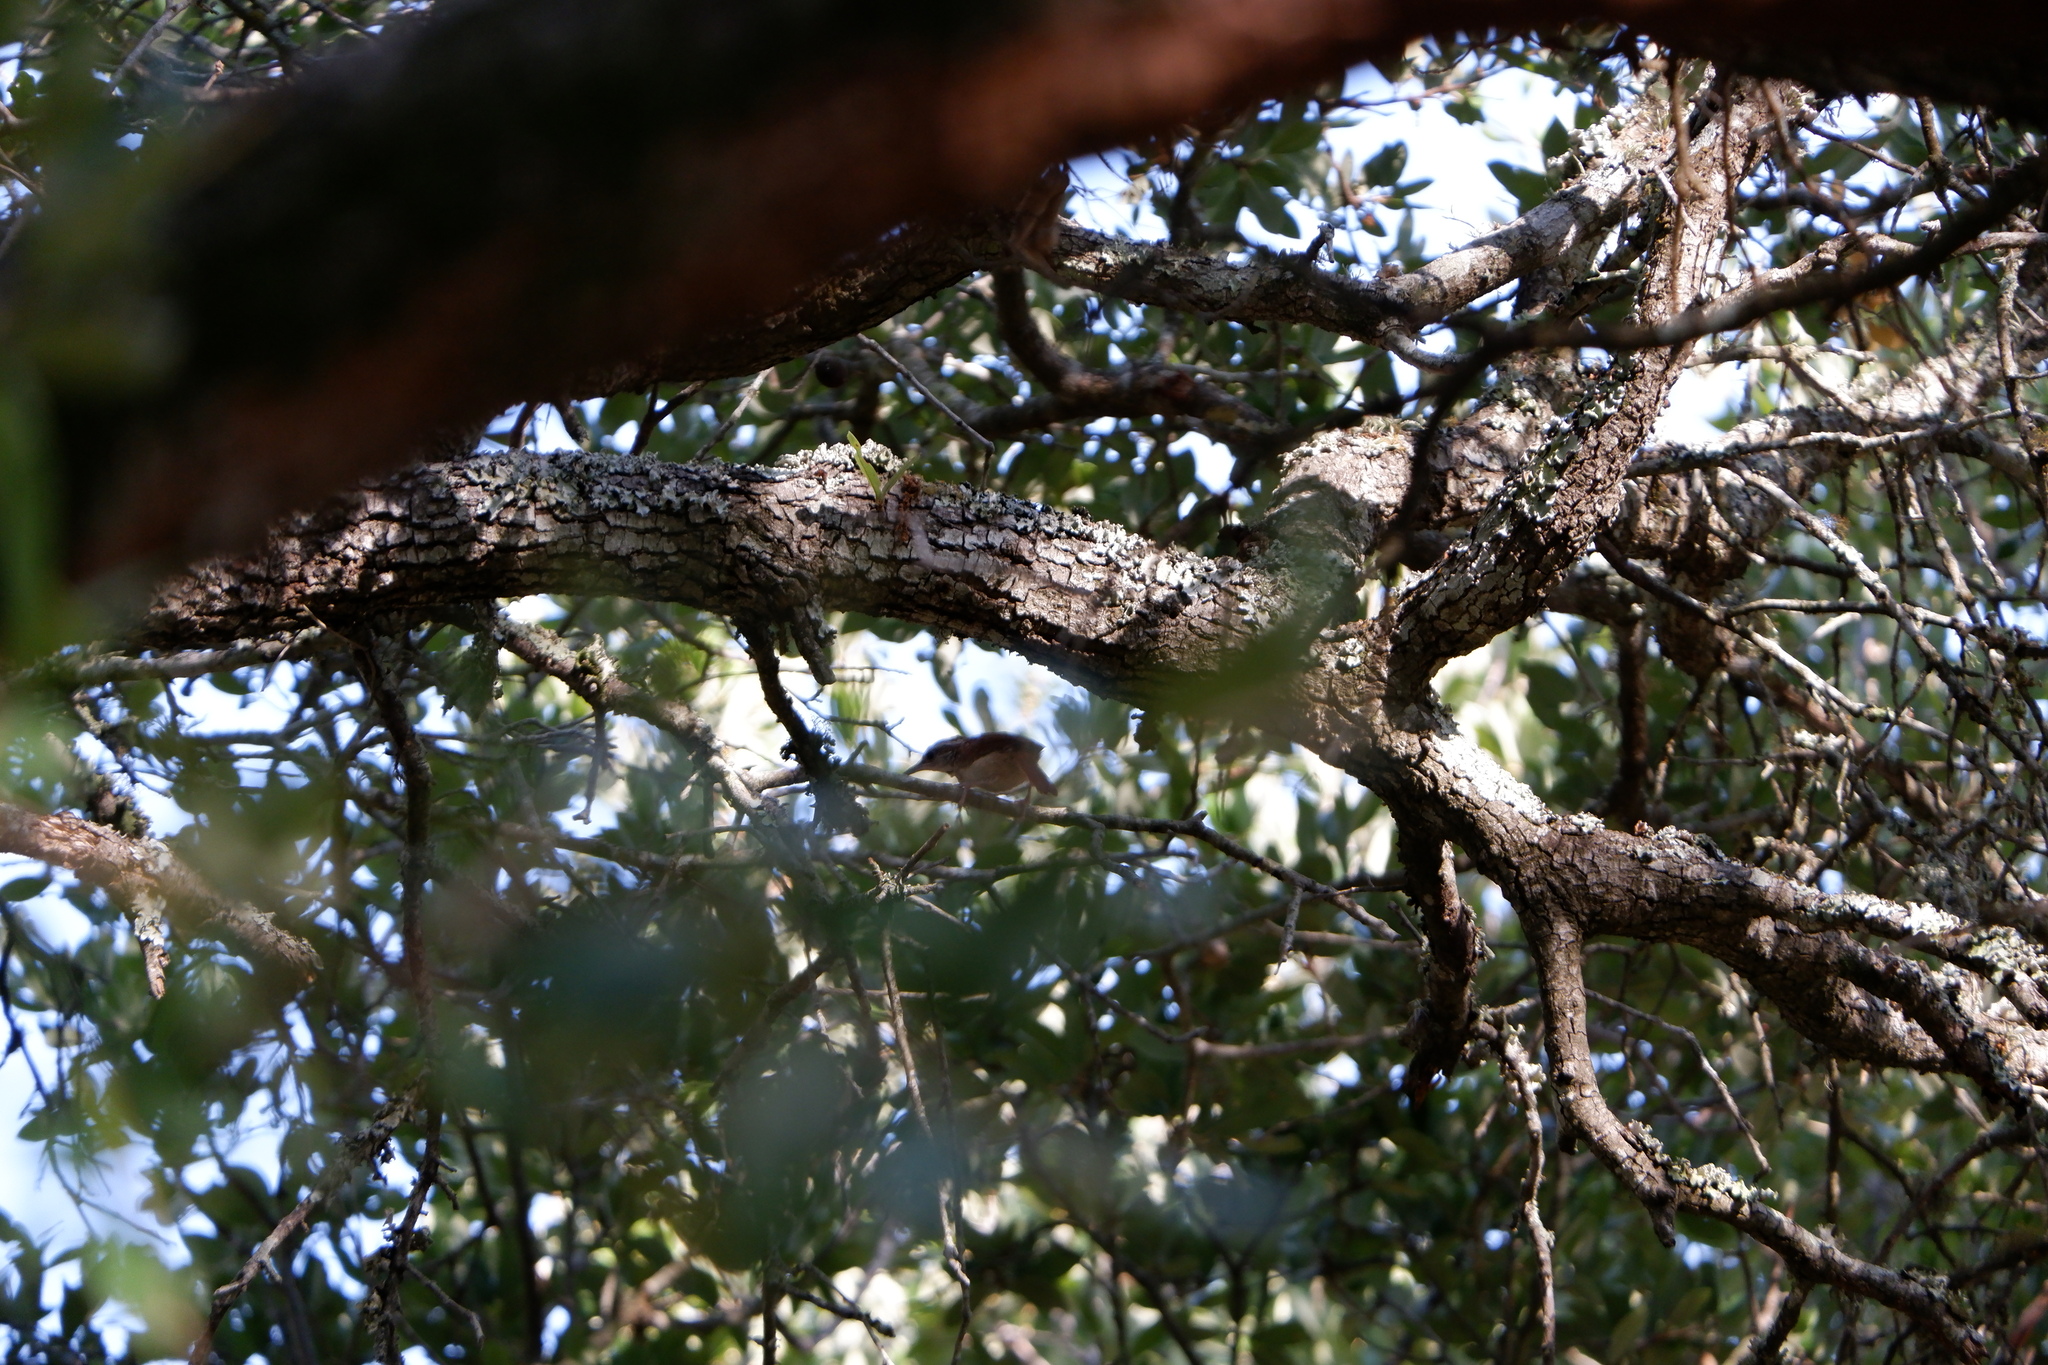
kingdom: Animalia
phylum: Chordata
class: Aves
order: Passeriformes
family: Troglodytidae
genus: Thryothorus
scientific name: Thryothorus ludovicianus
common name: Carolina wren
